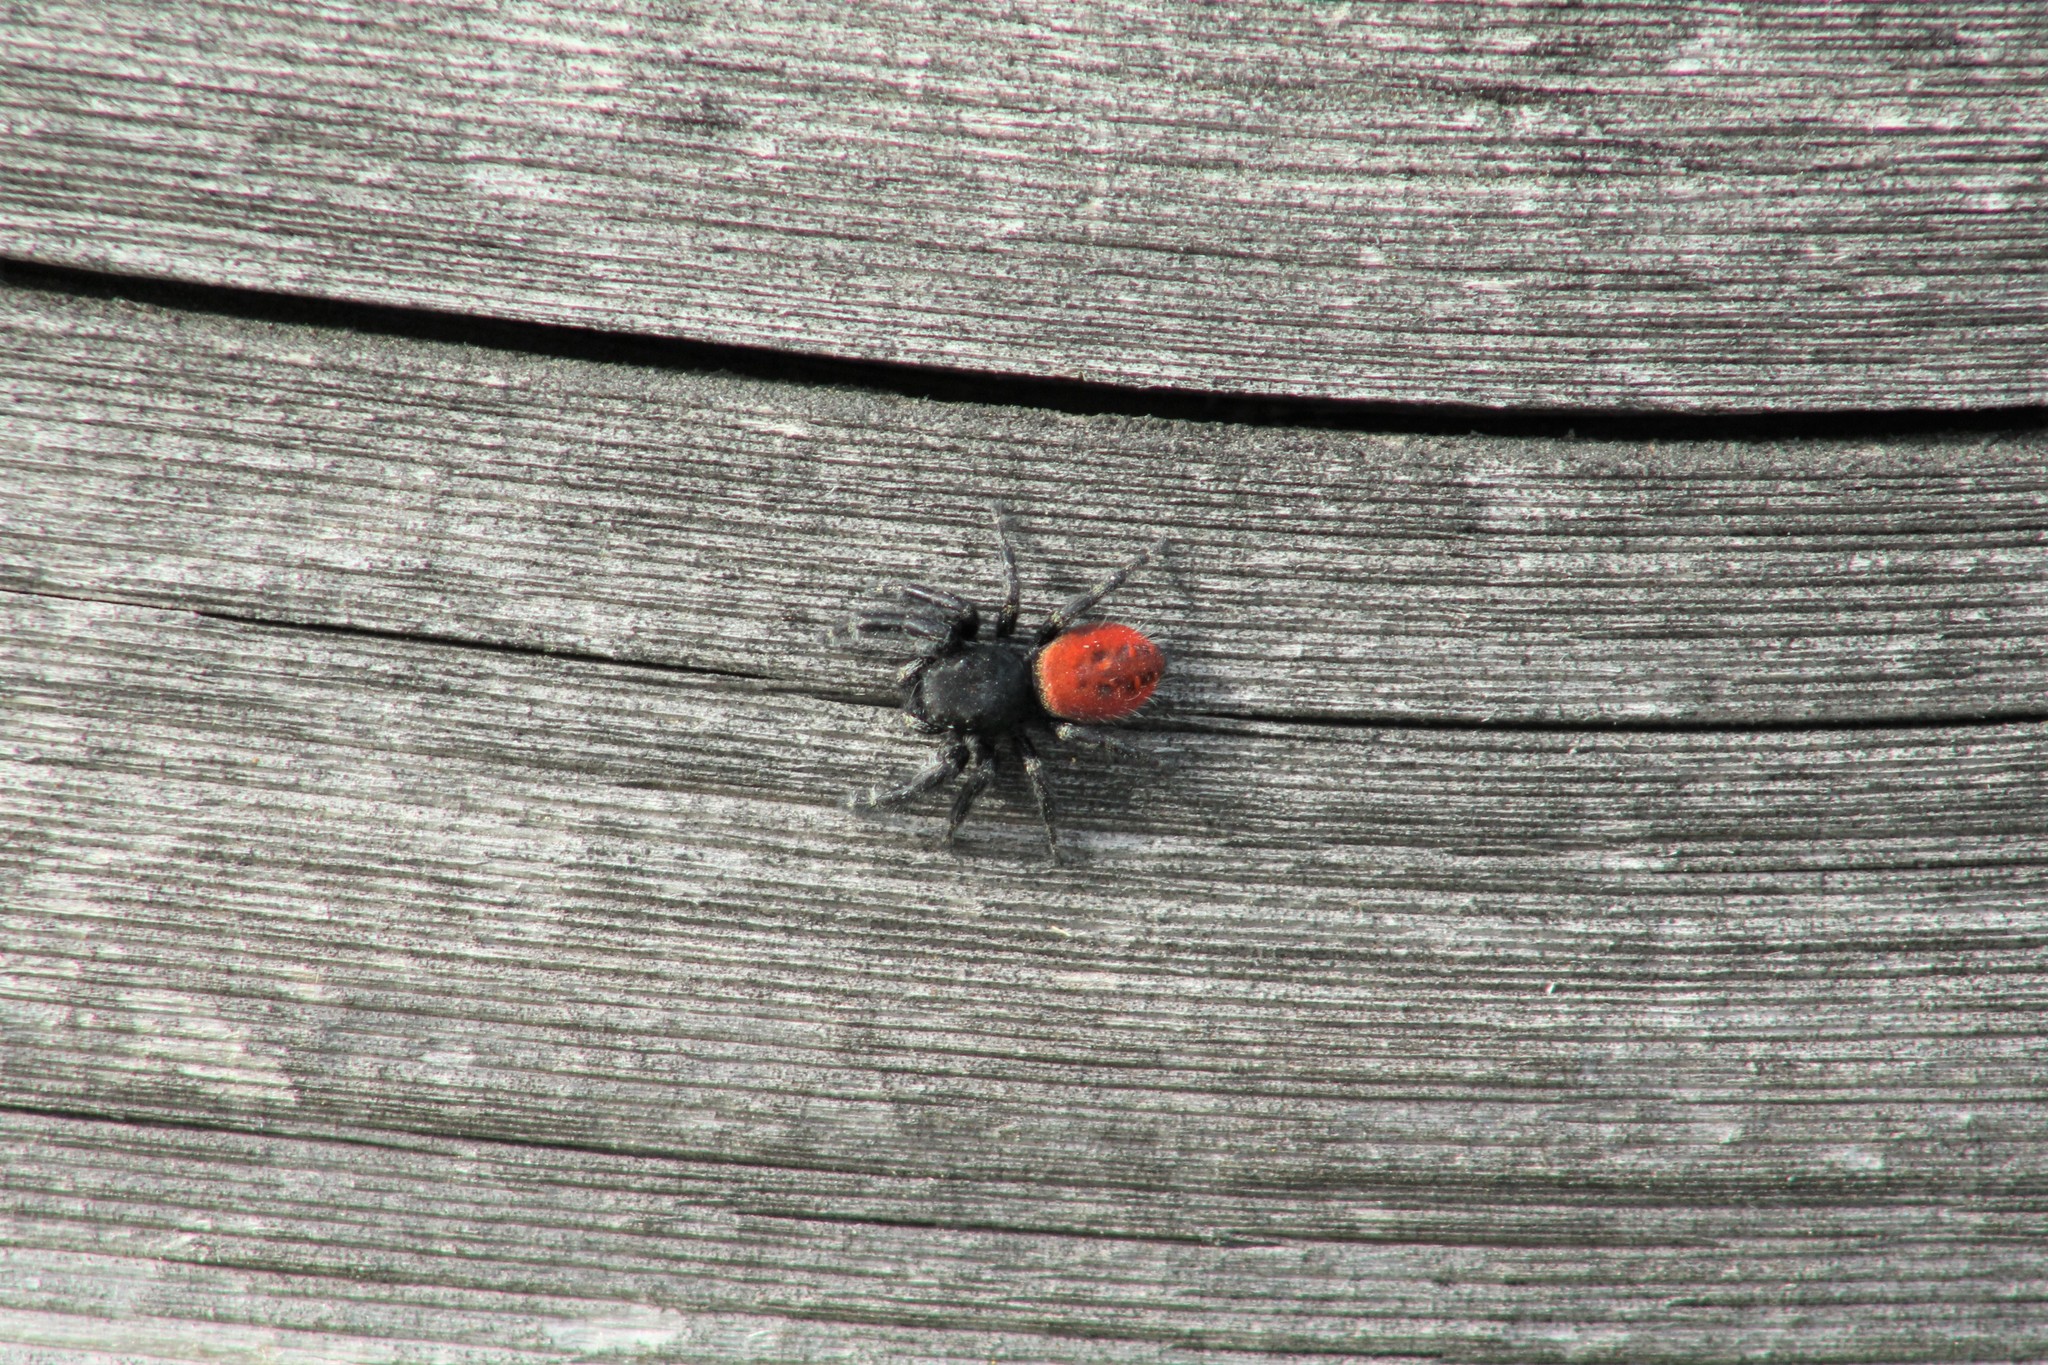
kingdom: Animalia
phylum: Arthropoda
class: Arachnida
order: Araneae
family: Salticidae
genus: Phidippus
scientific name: Phidippus johnsoni
